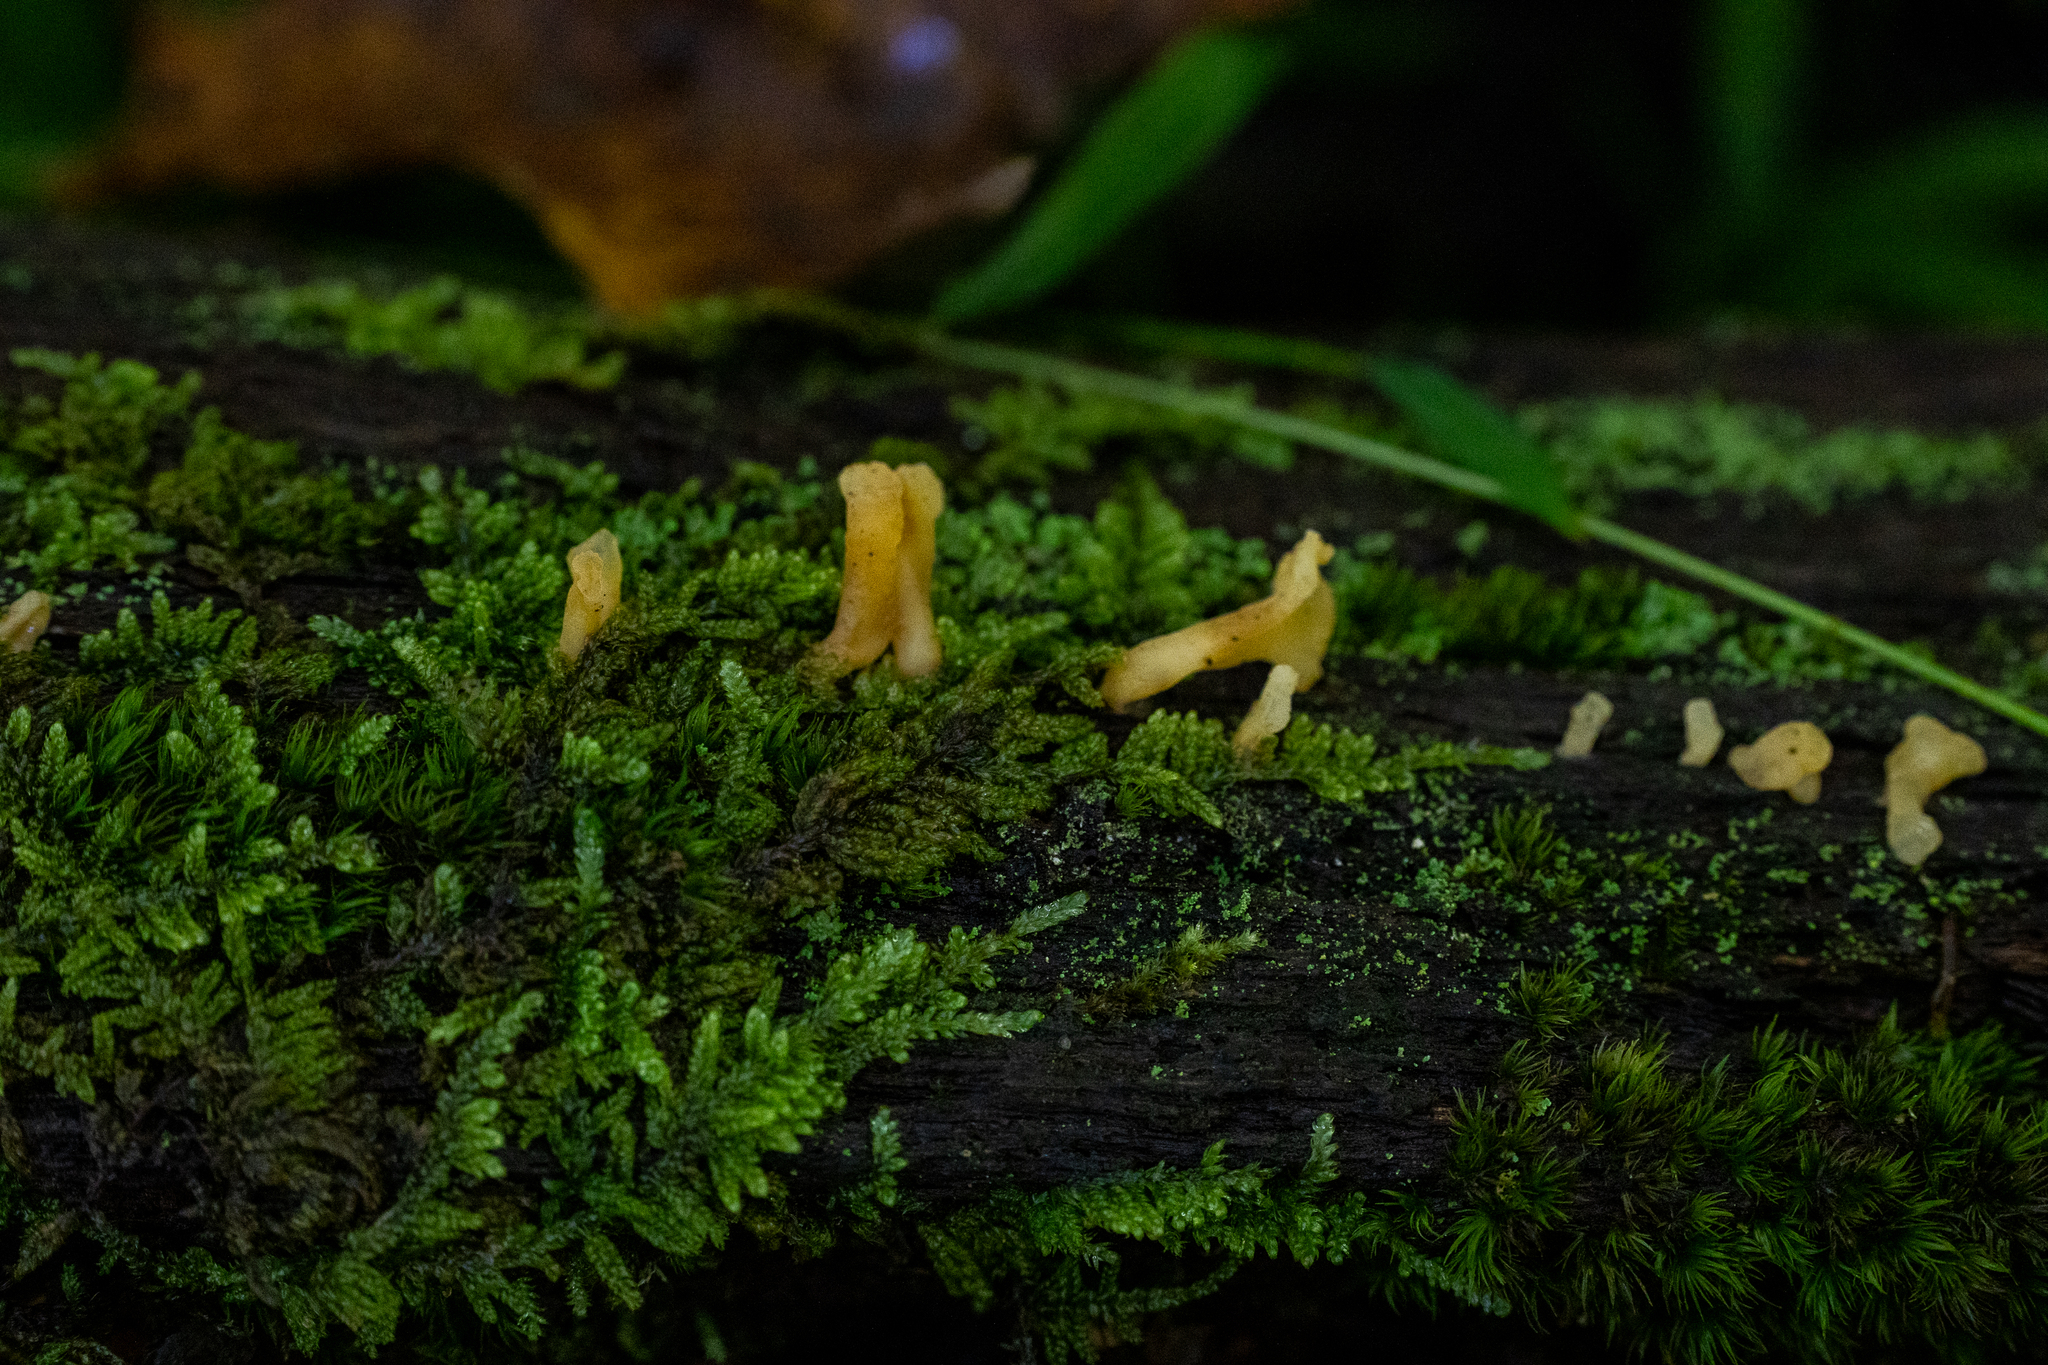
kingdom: Fungi
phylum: Basidiomycota
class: Dacrymycetes
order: Dacrymycetales
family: Dacrymycetaceae
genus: Dacrymyces
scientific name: Dacrymyces spathularius
